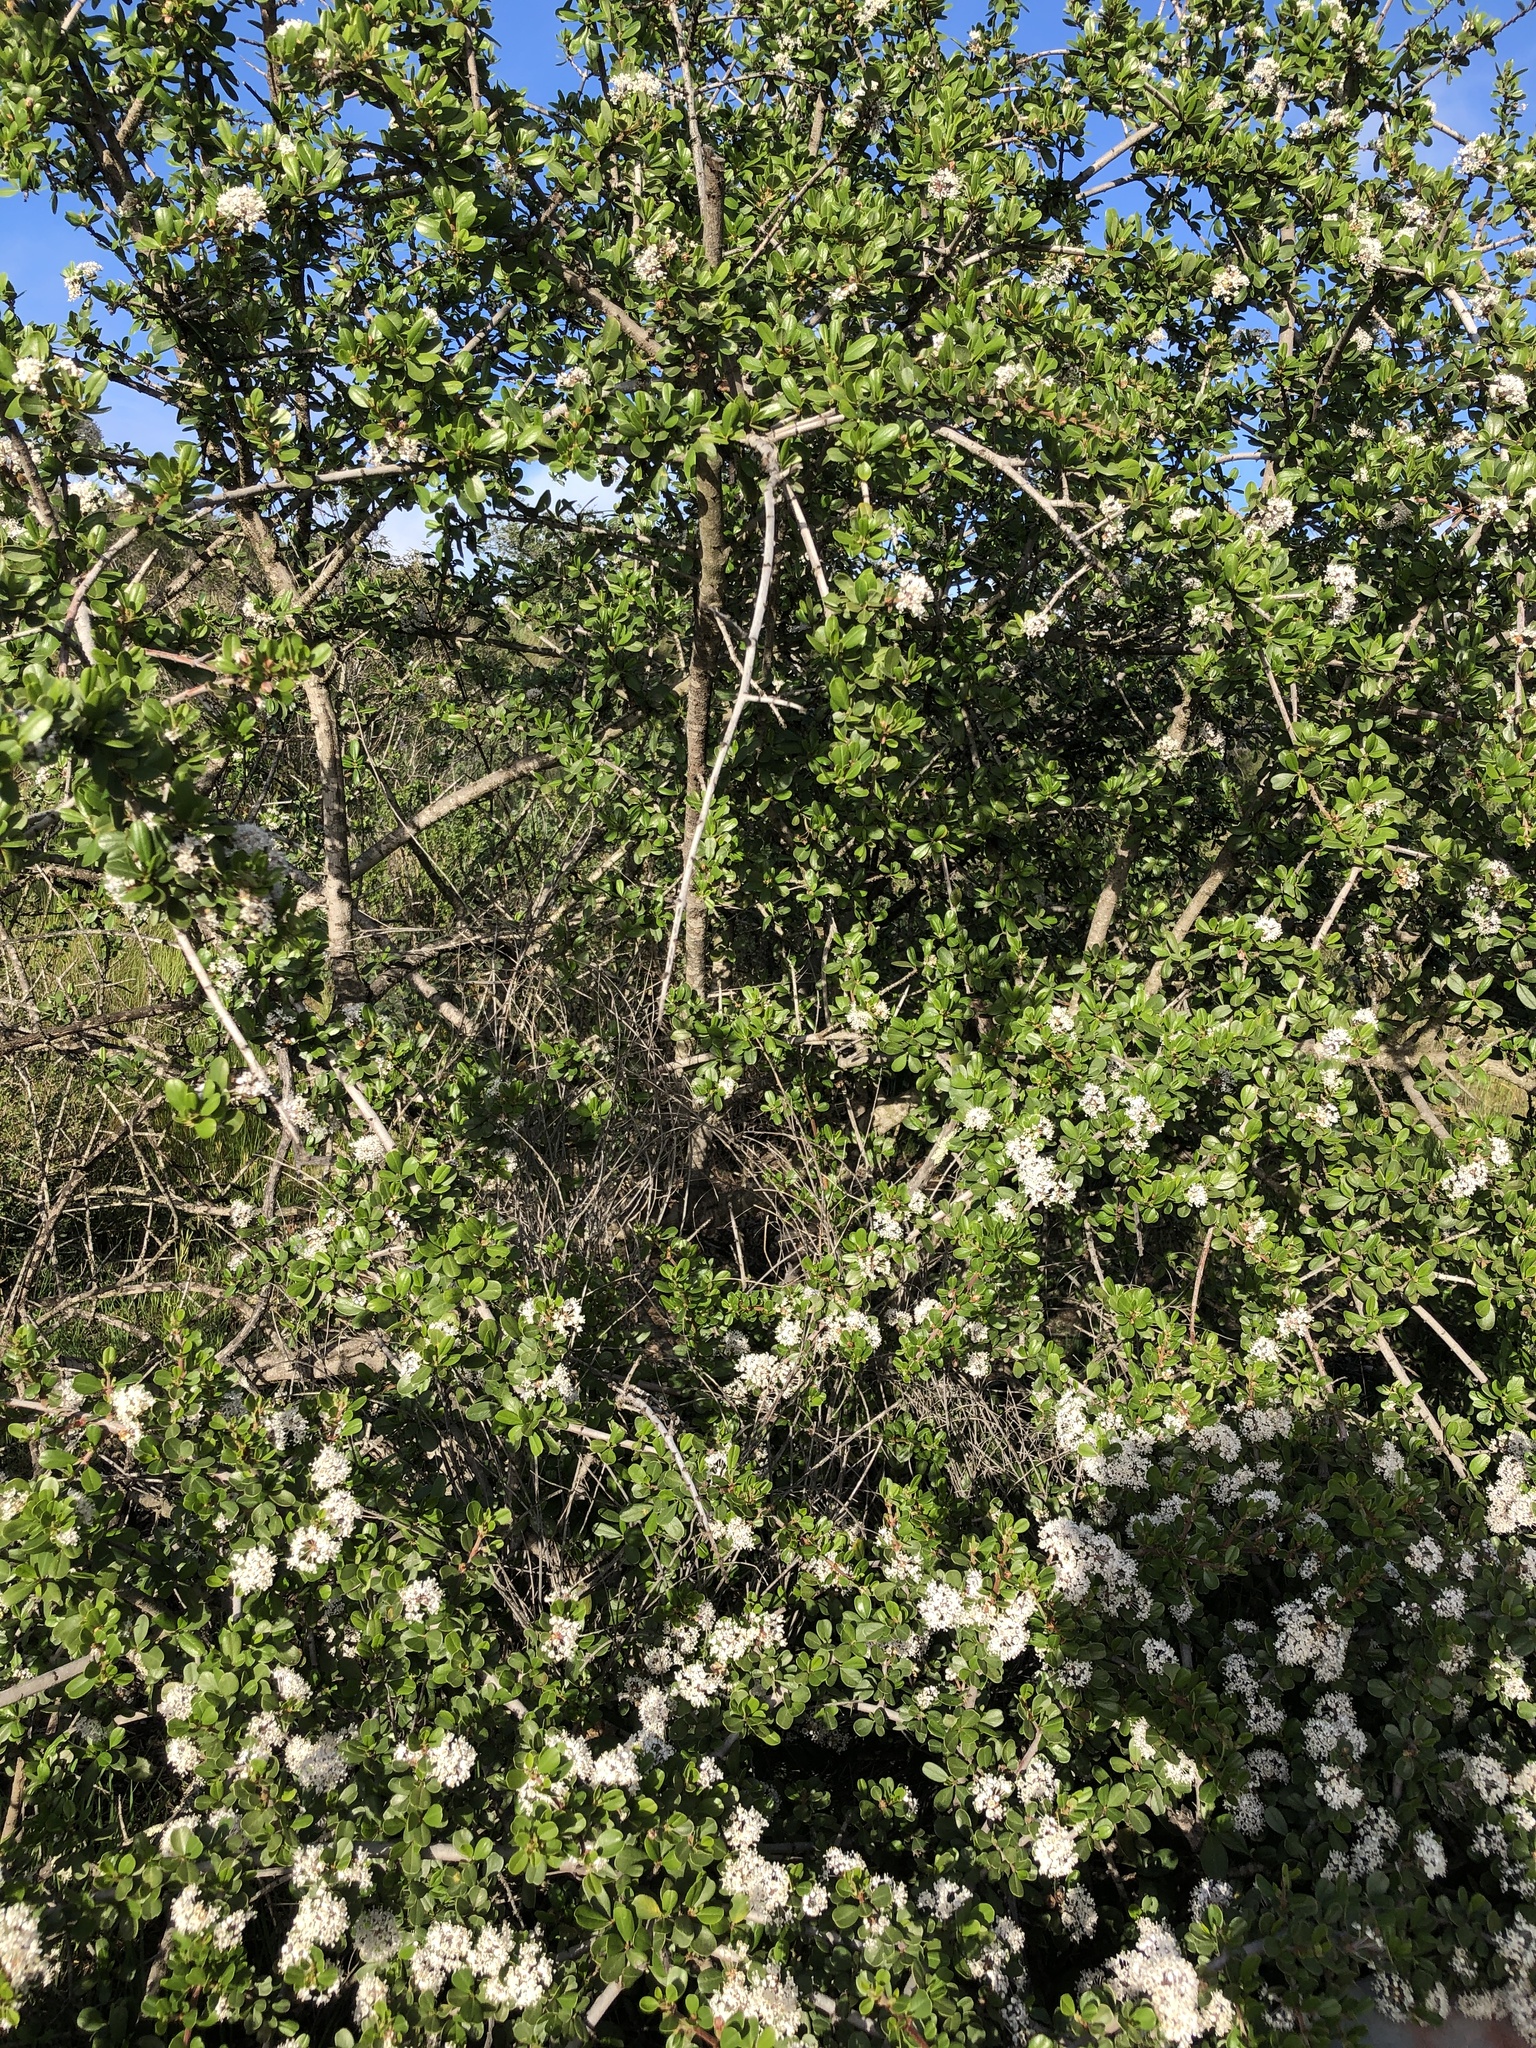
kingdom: Plantae
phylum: Tracheophyta
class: Magnoliopsida
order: Rosales
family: Rhamnaceae
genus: Ceanothus
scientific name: Ceanothus cuneatus
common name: Cuneate ceanothus
